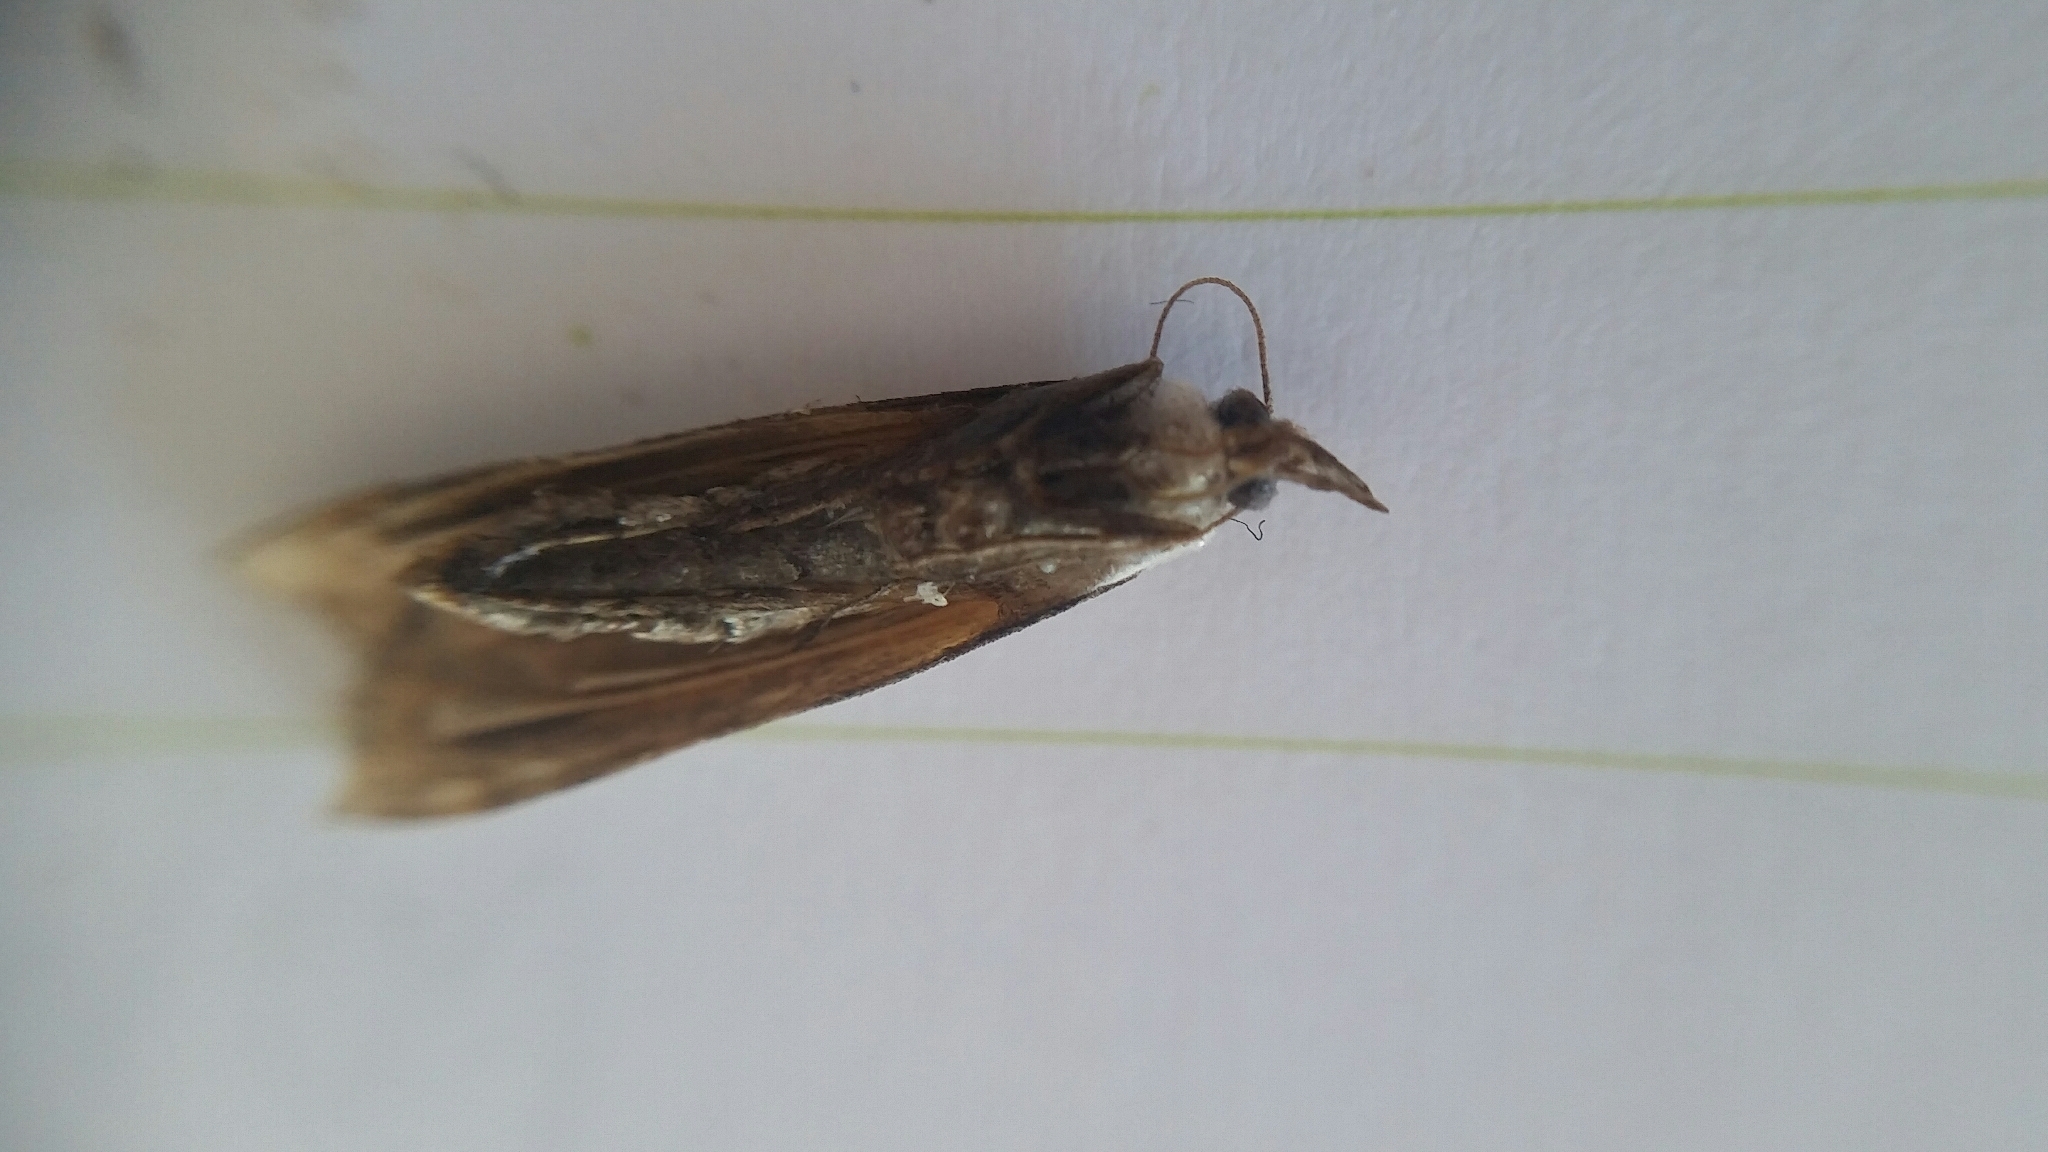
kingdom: Animalia
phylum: Arthropoda
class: Insecta
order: Lepidoptera
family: Crambidae
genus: Orocrambus
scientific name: Orocrambus flexuosellus
